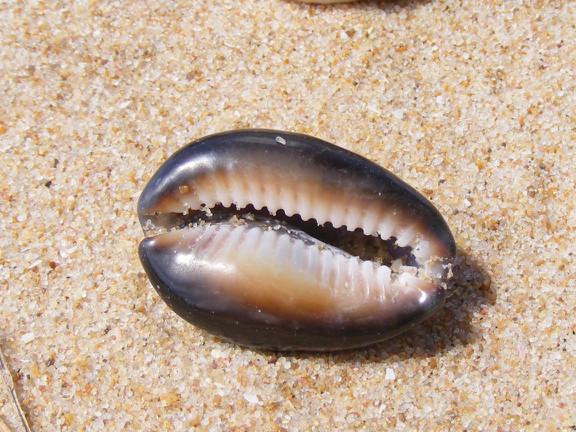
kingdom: Animalia
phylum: Mollusca
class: Gastropoda
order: Littorinimorpha
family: Cypraeidae
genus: Monetaria
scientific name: Monetaria caputserpentis
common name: Serpent's head cowrie
